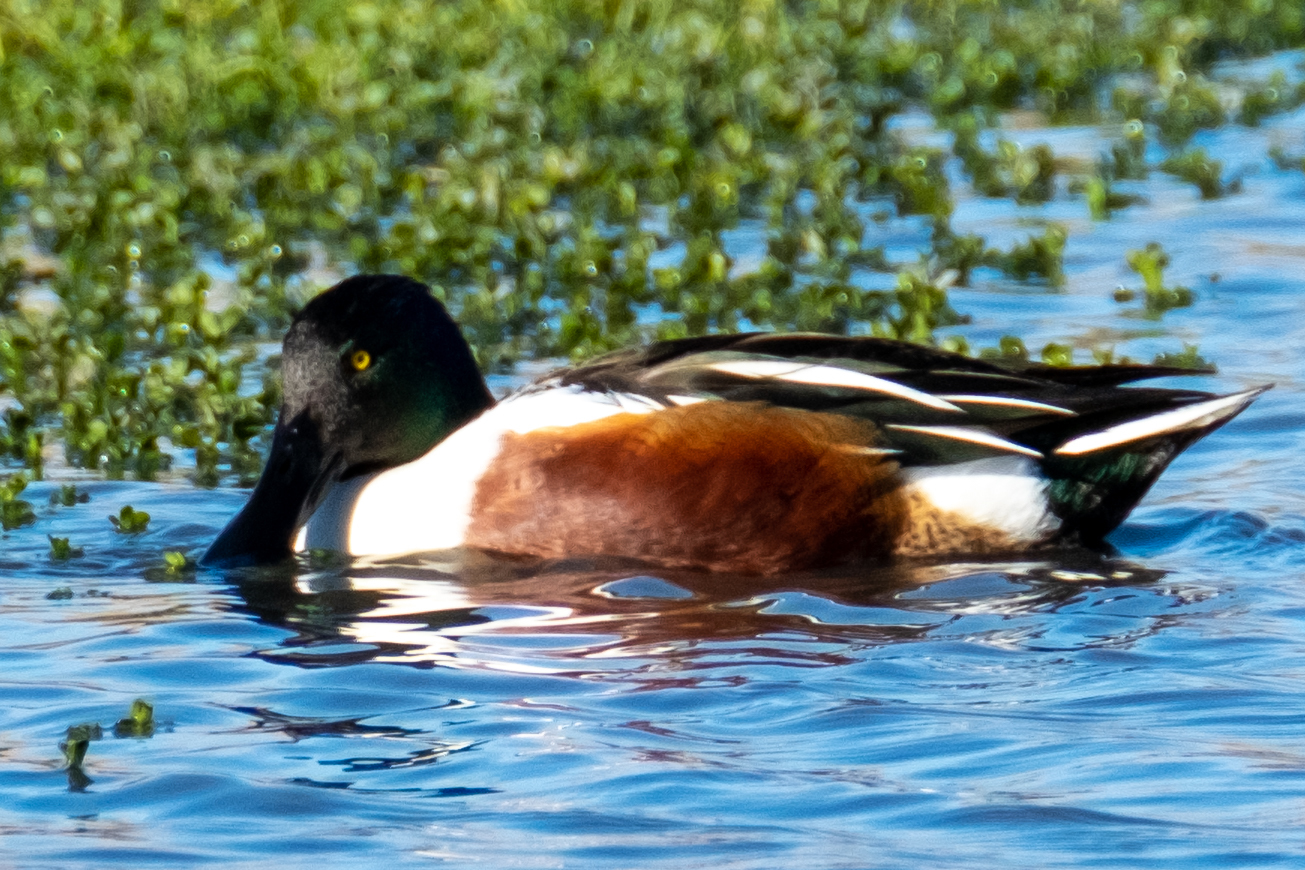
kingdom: Animalia
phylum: Chordata
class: Aves
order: Anseriformes
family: Anatidae
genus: Spatula
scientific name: Spatula clypeata
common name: Northern shoveler
